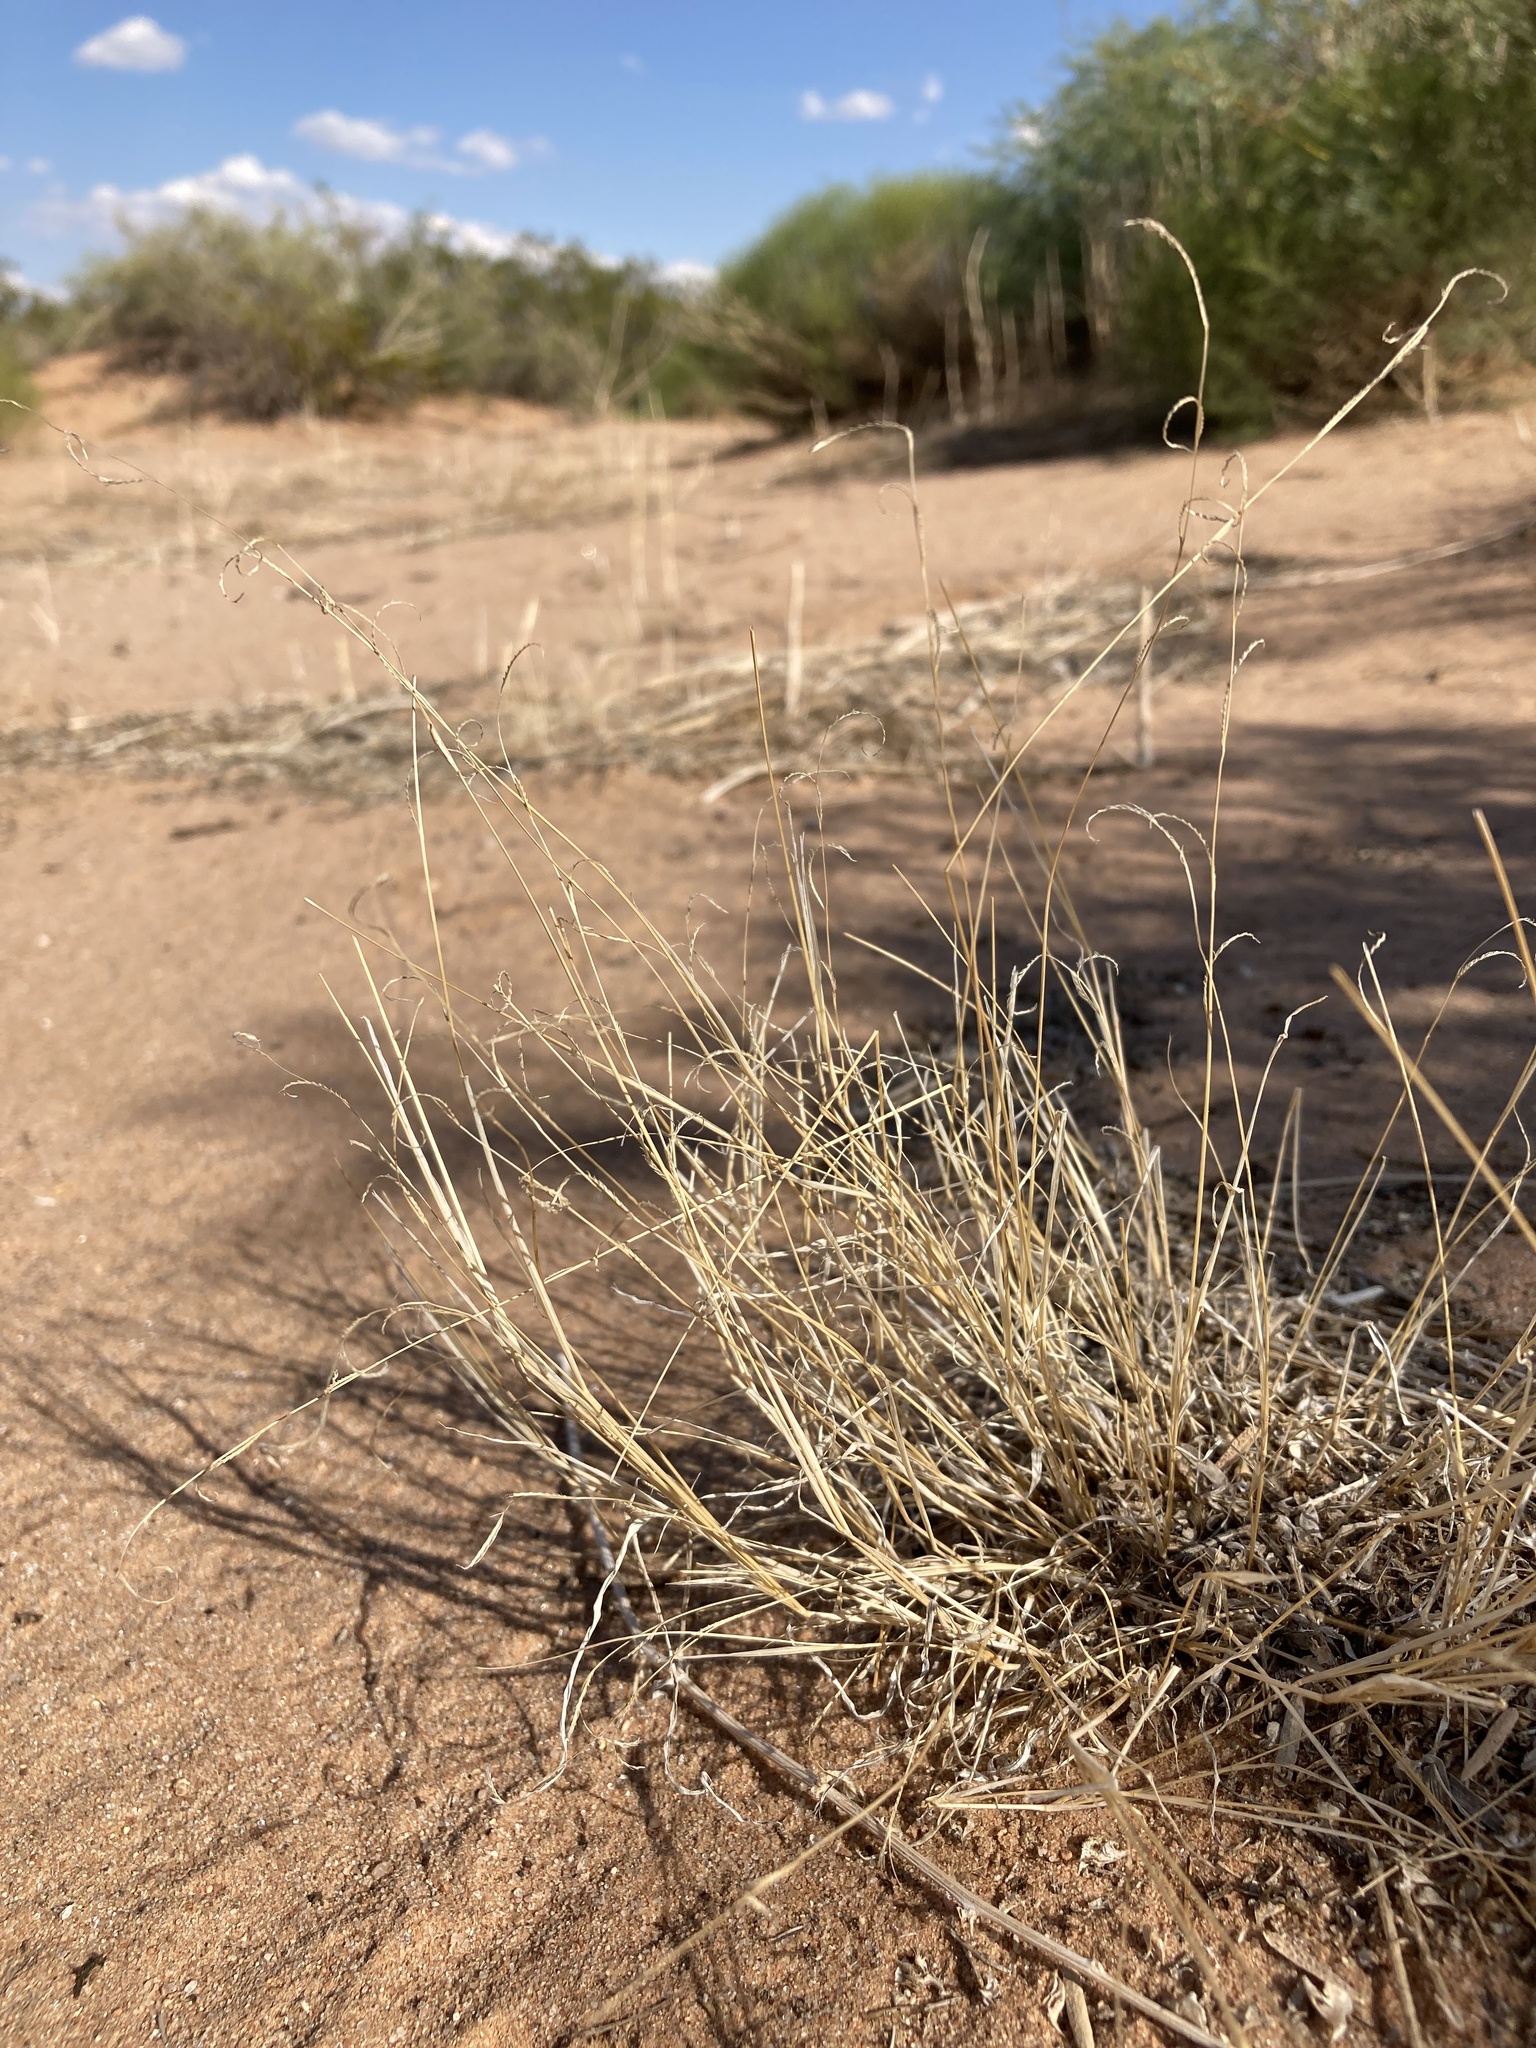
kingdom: Plantae
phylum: Tracheophyta
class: Liliopsida
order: Poales
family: Poaceae
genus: Bouteloua
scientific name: Bouteloua barbata
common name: Six-weeks grama
